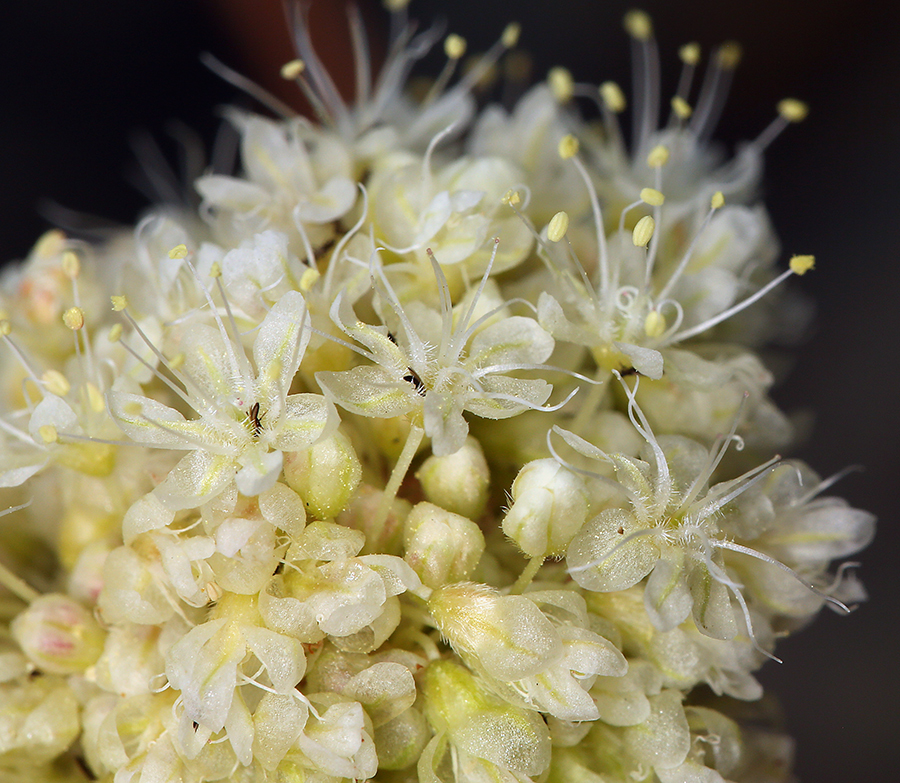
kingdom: Plantae
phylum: Tracheophyta
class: Magnoliopsida
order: Caryophyllales
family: Polygonaceae
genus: Eriogonum
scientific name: Eriogonum latens
